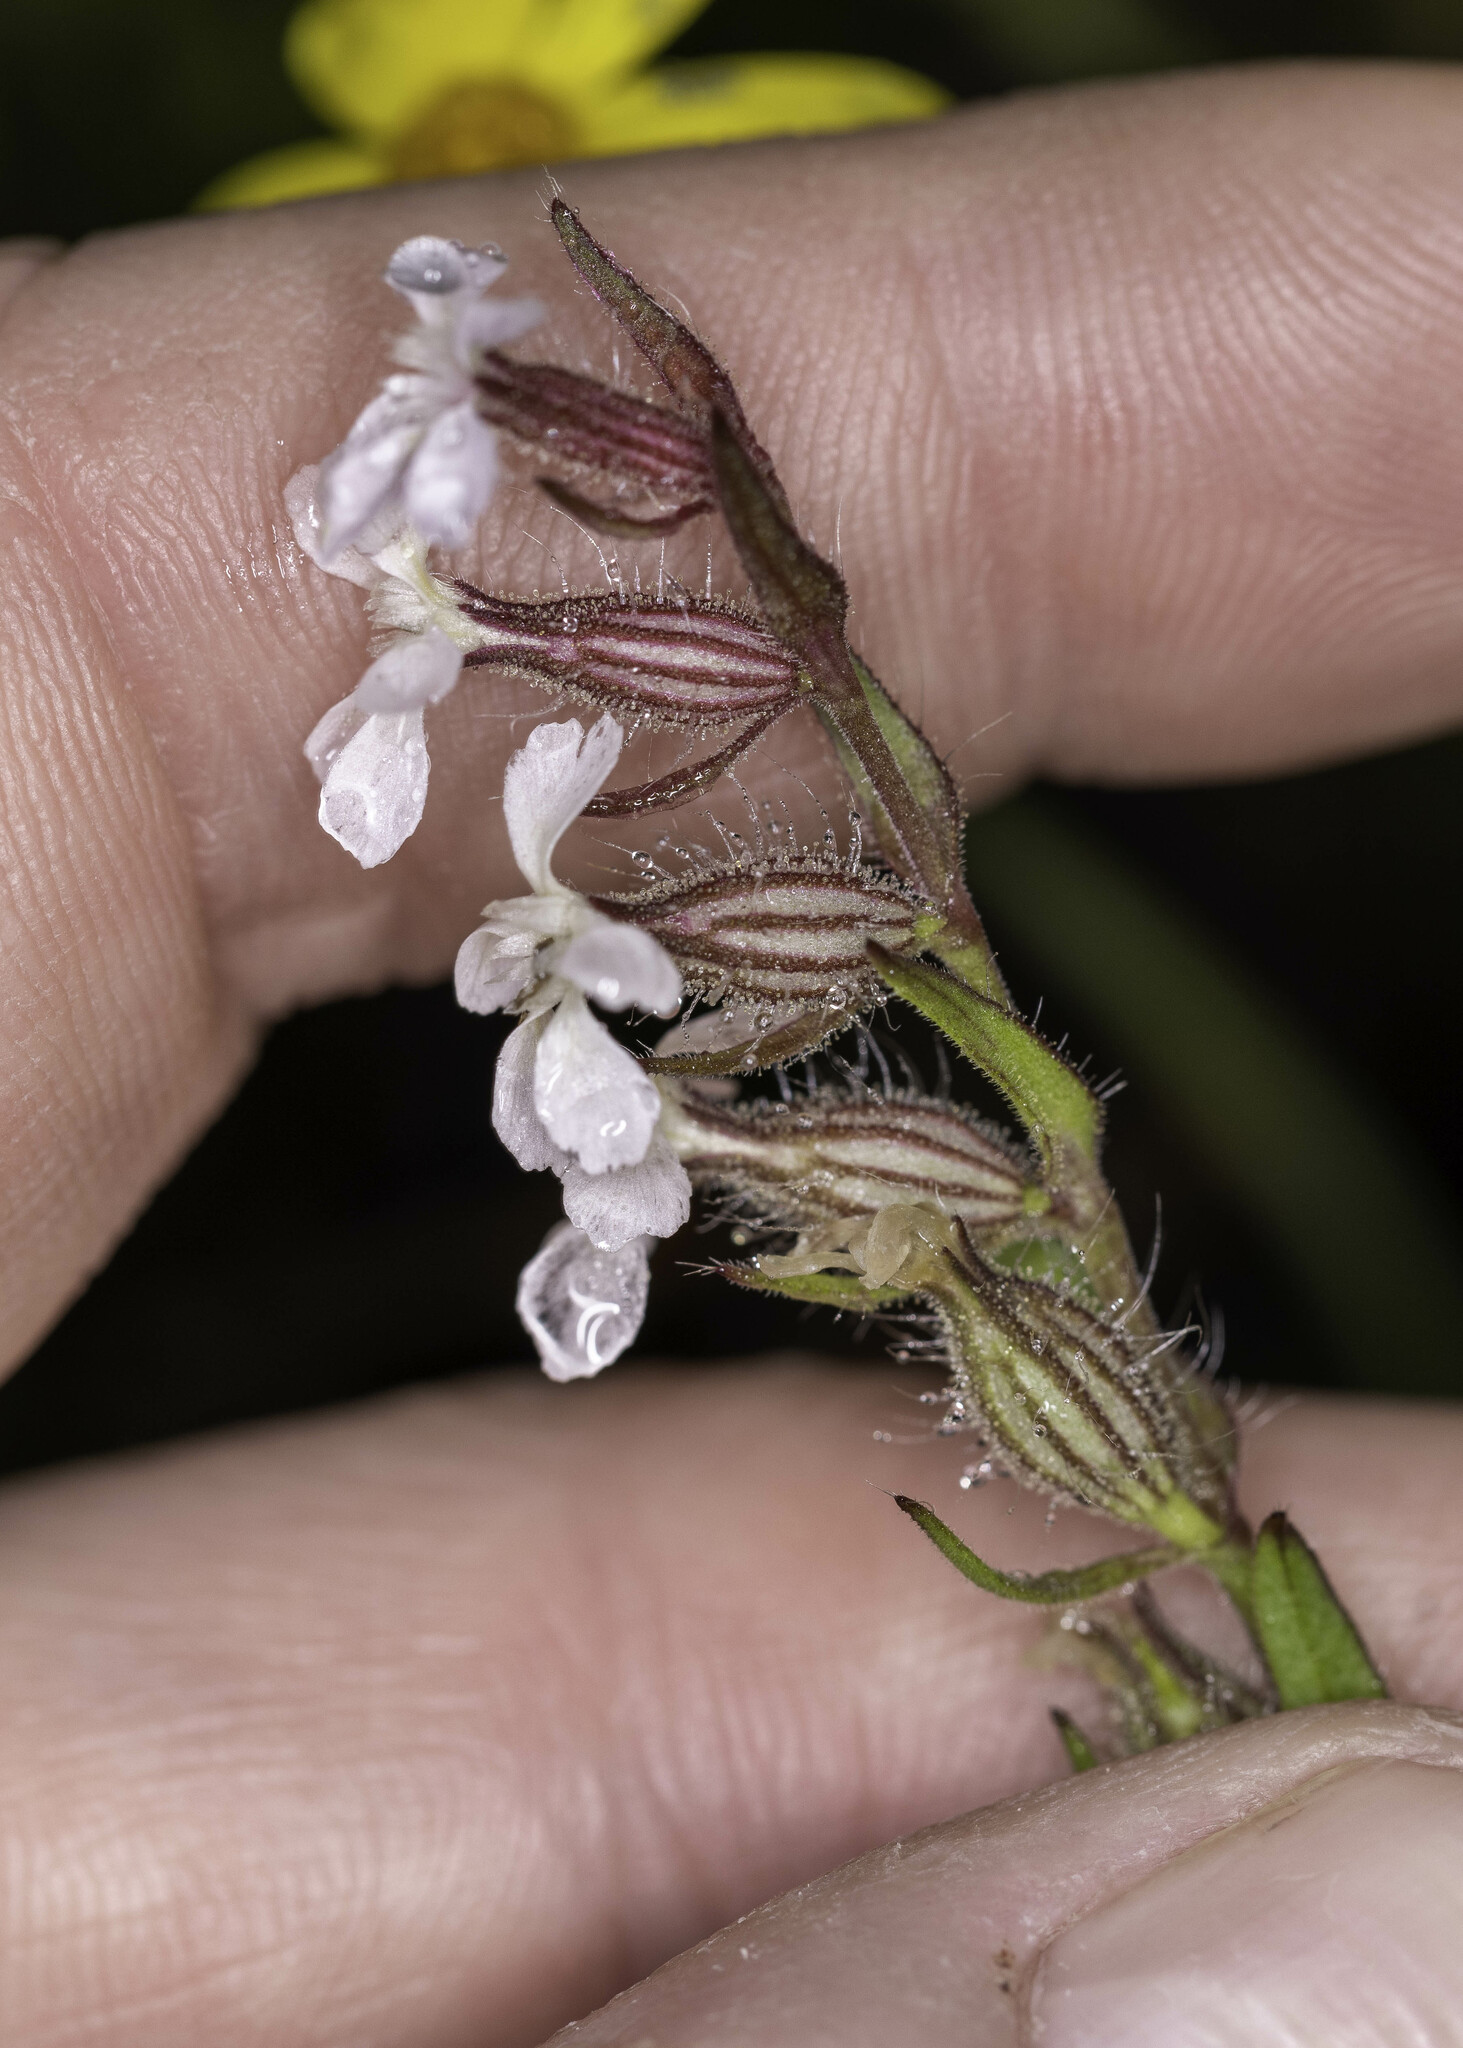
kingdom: Plantae
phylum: Tracheophyta
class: Magnoliopsida
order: Caryophyllales
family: Caryophyllaceae
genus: Silene
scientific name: Silene gallica
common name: Small-flowered catchfly
